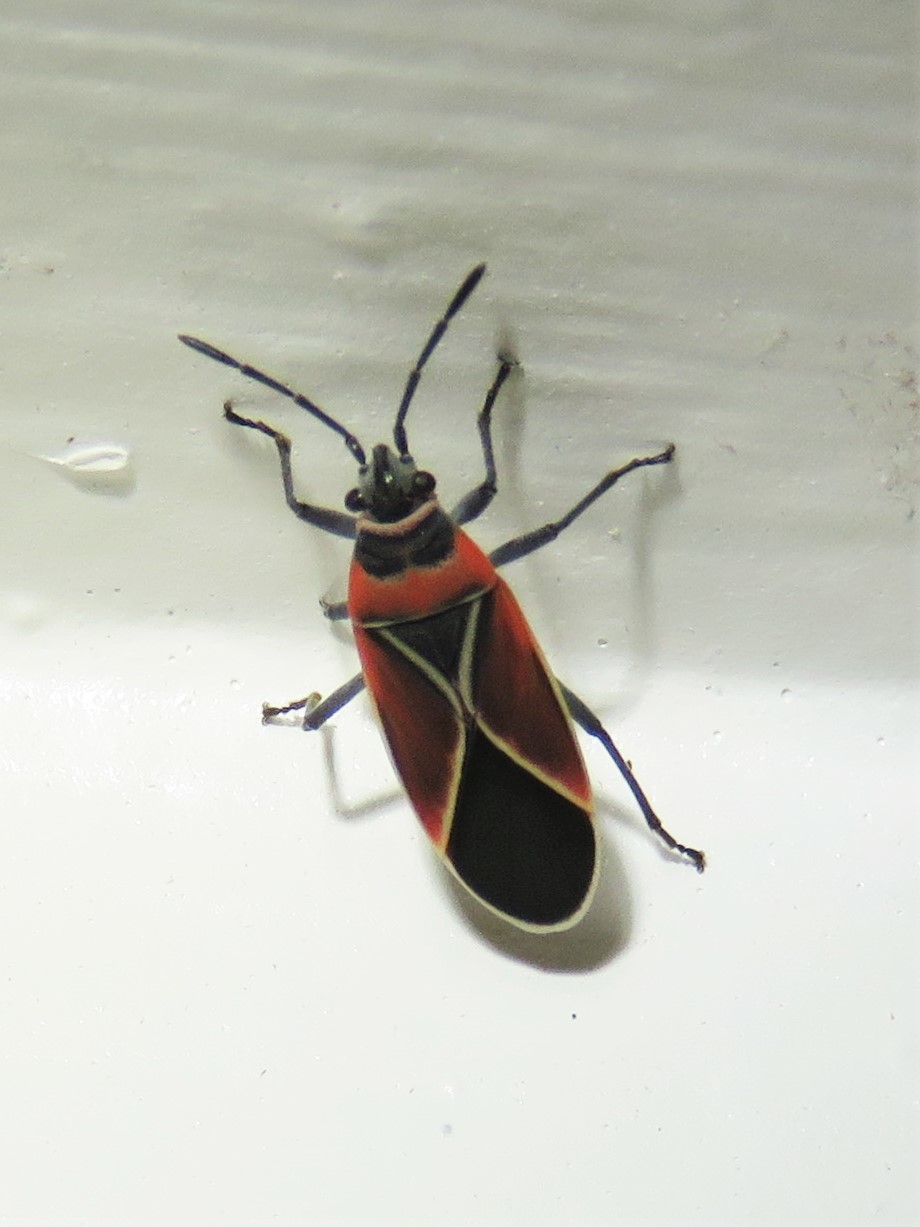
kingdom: Animalia
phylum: Arthropoda
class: Insecta
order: Hemiptera
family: Lygaeidae
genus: Neacoryphus
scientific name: Neacoryphus bicrucis
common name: Lygaeid bug
